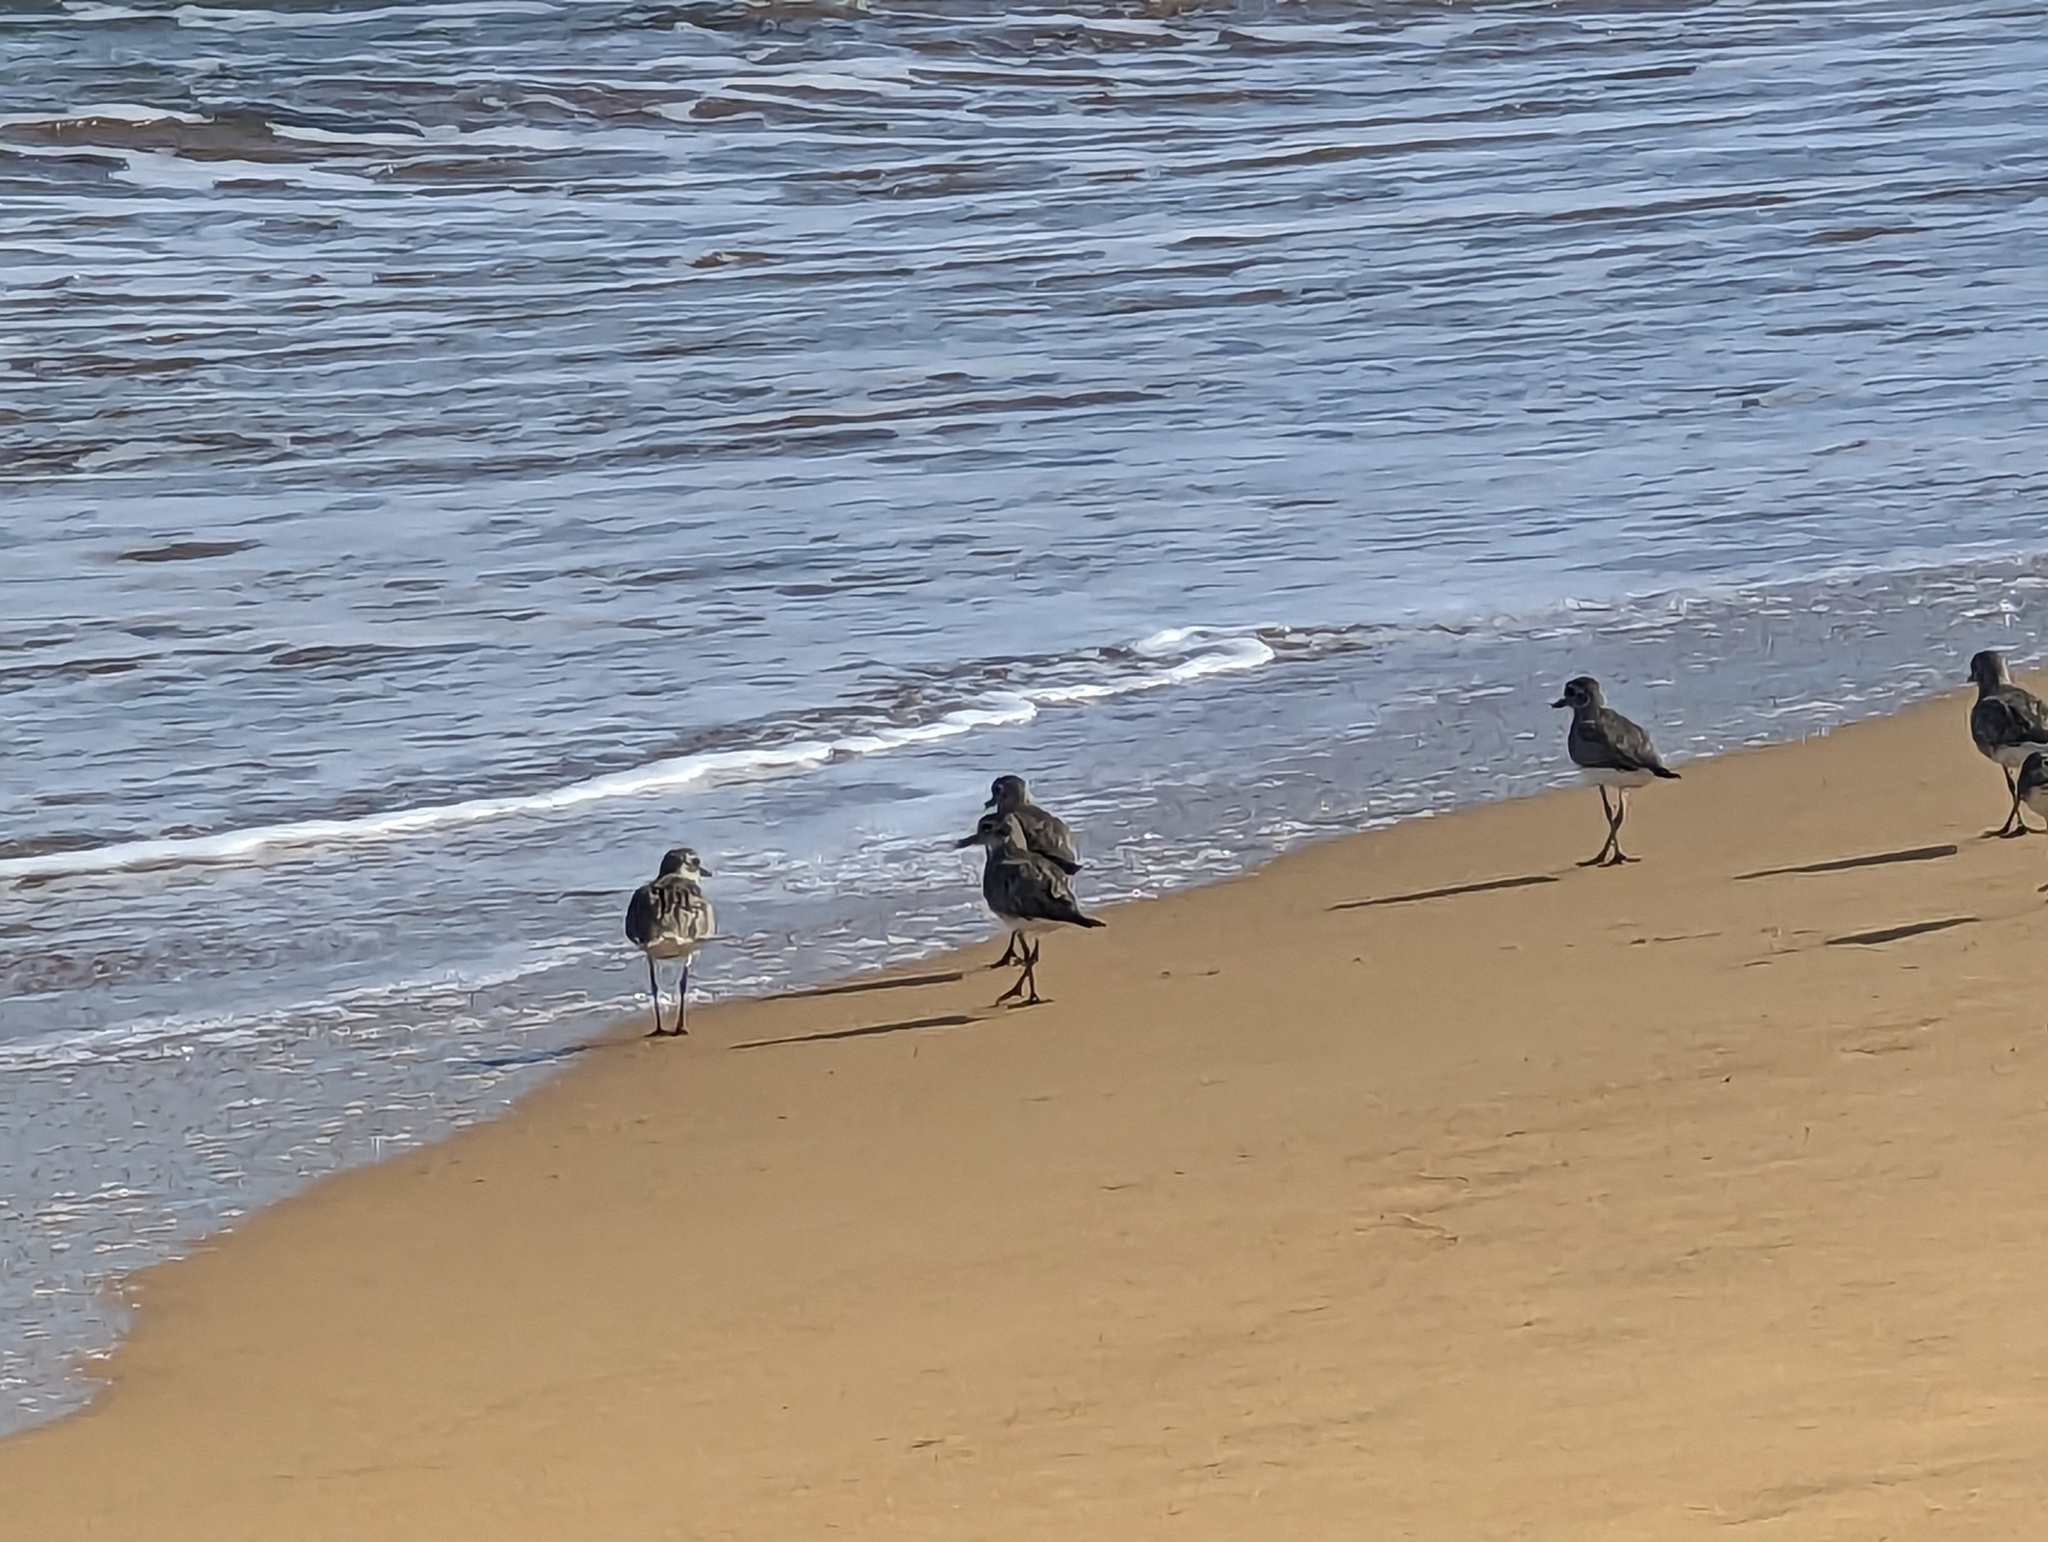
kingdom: Animalia
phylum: Chordata
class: Aves
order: Charadriiformes
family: Charadriidae
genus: Pluvialis
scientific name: Pluvialis squatarola
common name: Grey plover
